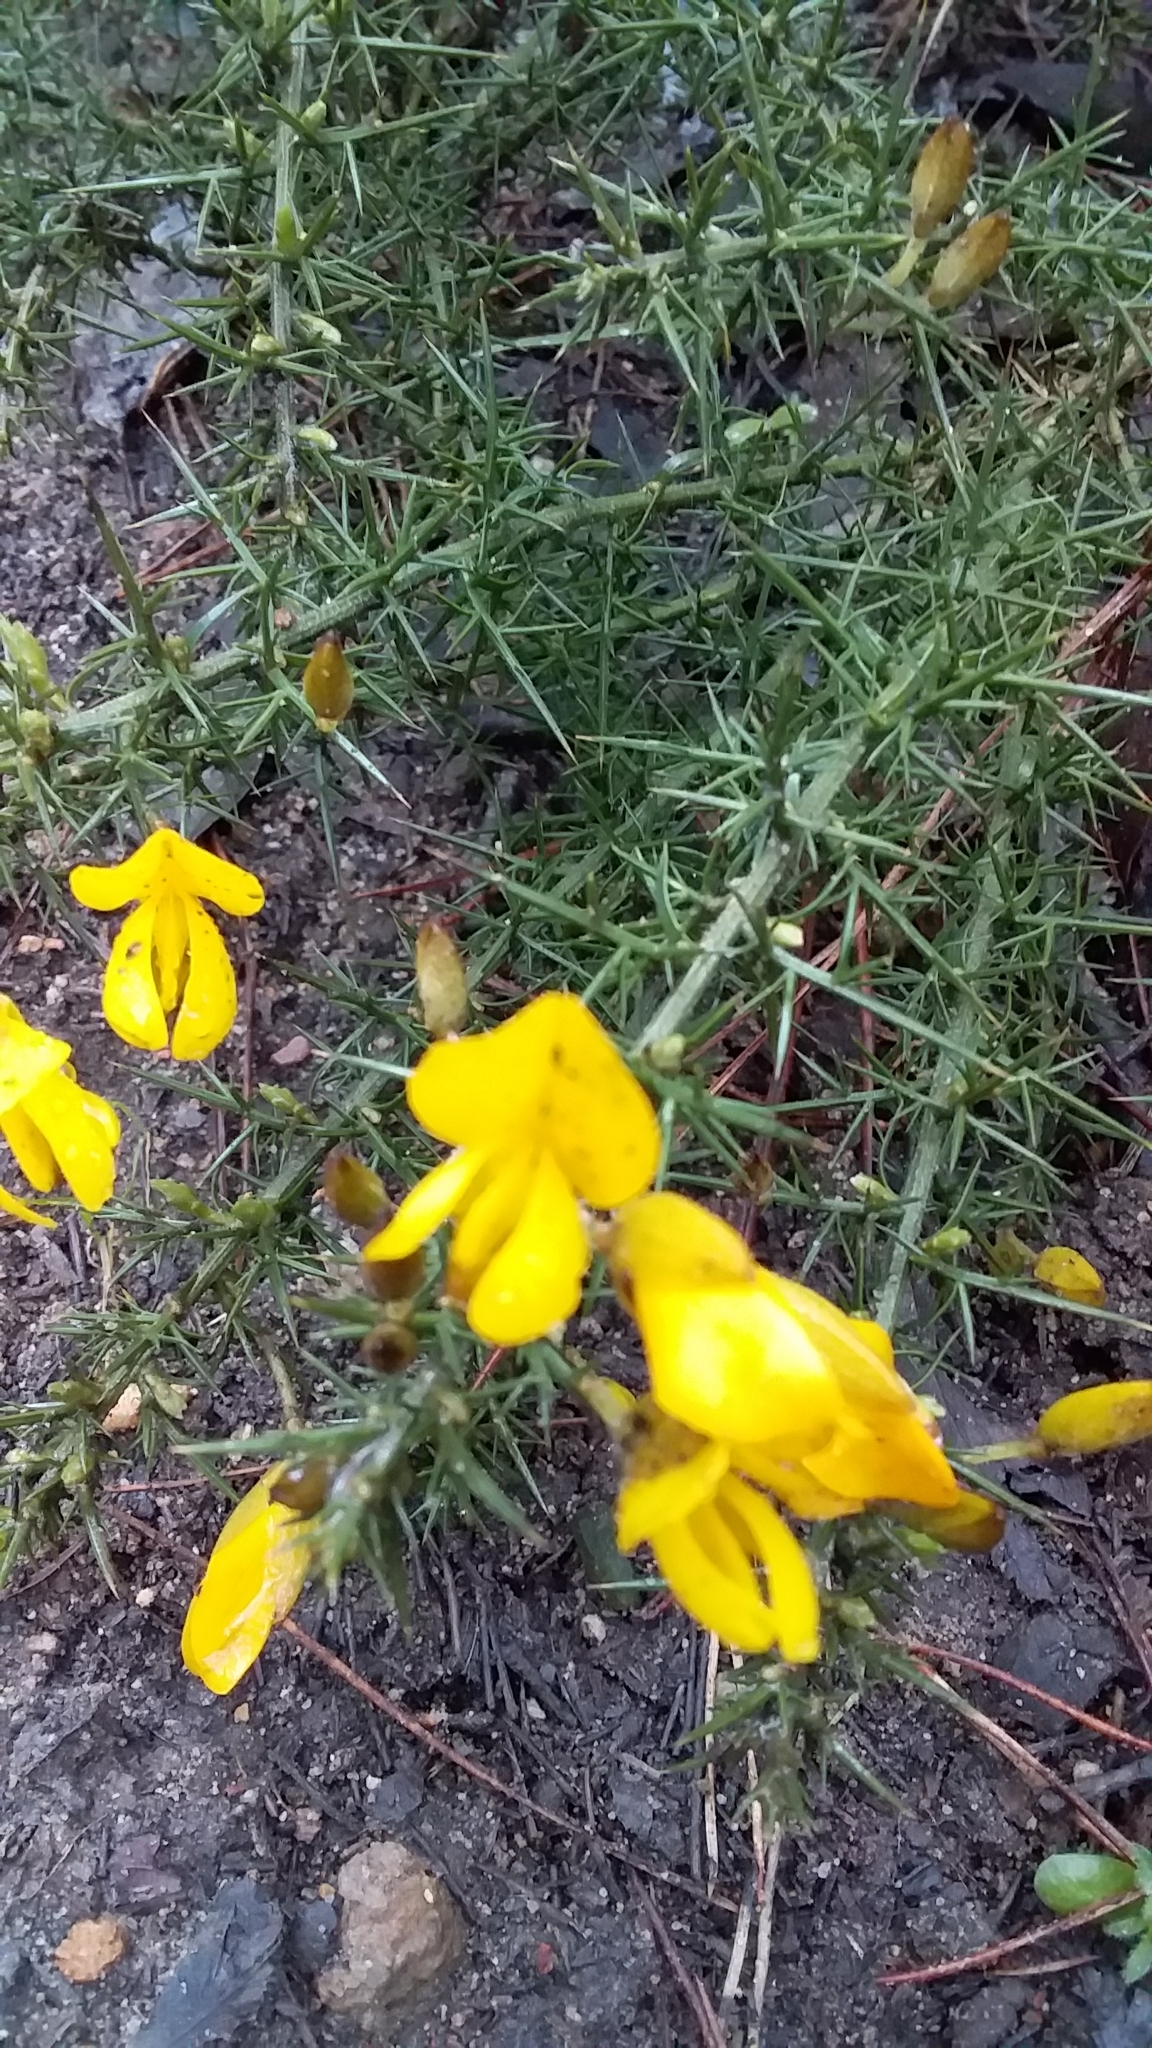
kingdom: Plantae
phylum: Tracheophyta
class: Magnoliopsida
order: Fabales
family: Fabaceae
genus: Ulex
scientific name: Ulex europaeus
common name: Common gorse
